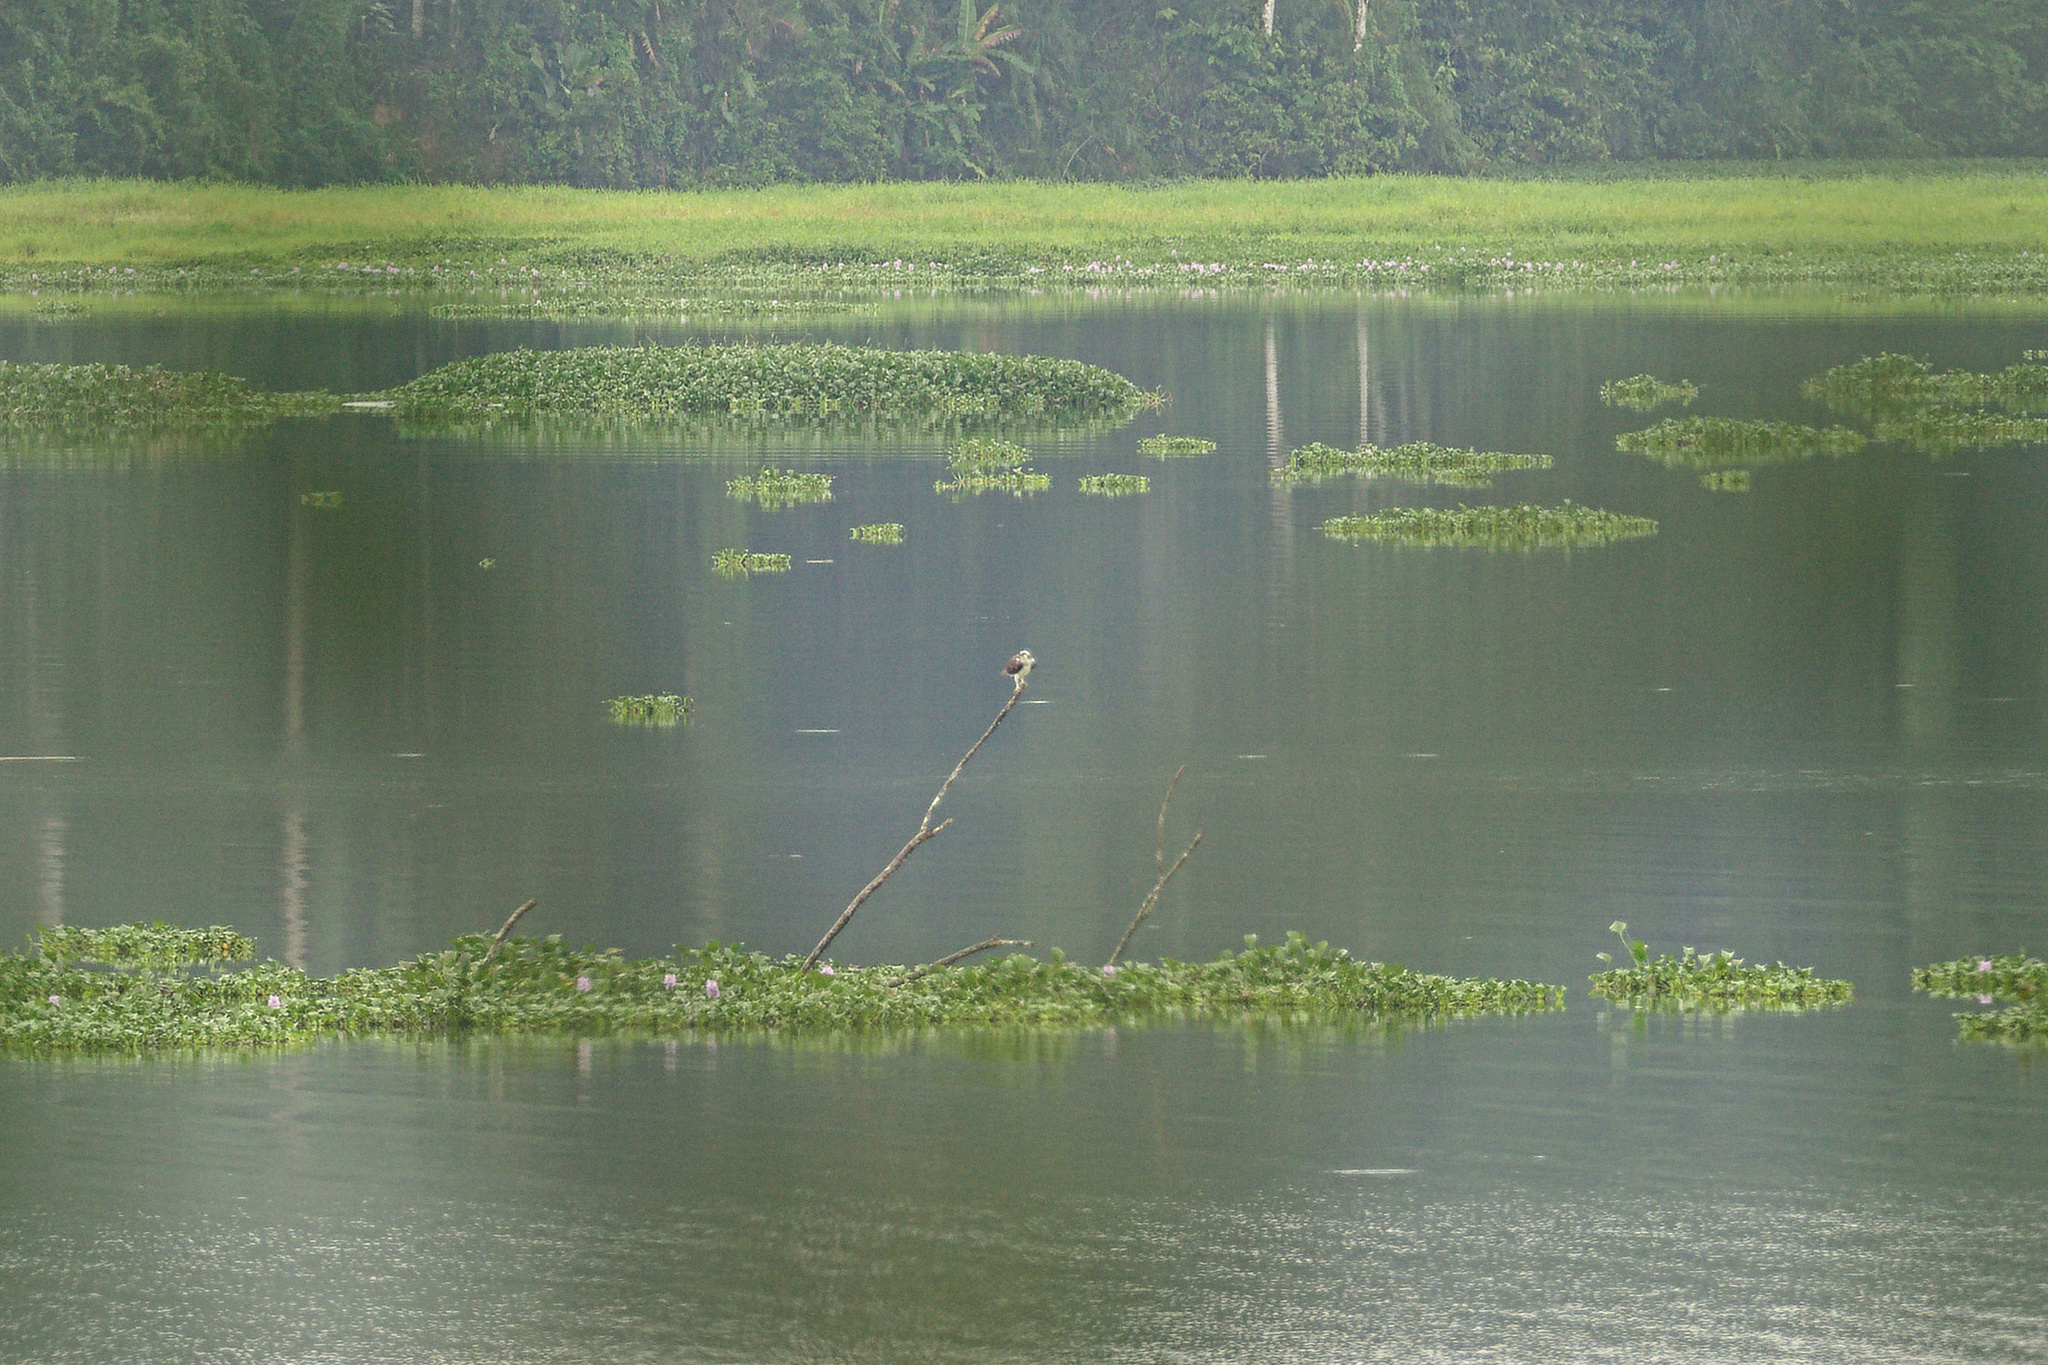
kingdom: Animalia
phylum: Chordata
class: Aves
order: Accipitriformes
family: Pandionidae
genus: Pandion
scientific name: Pandion haliaetus
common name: Osprey
